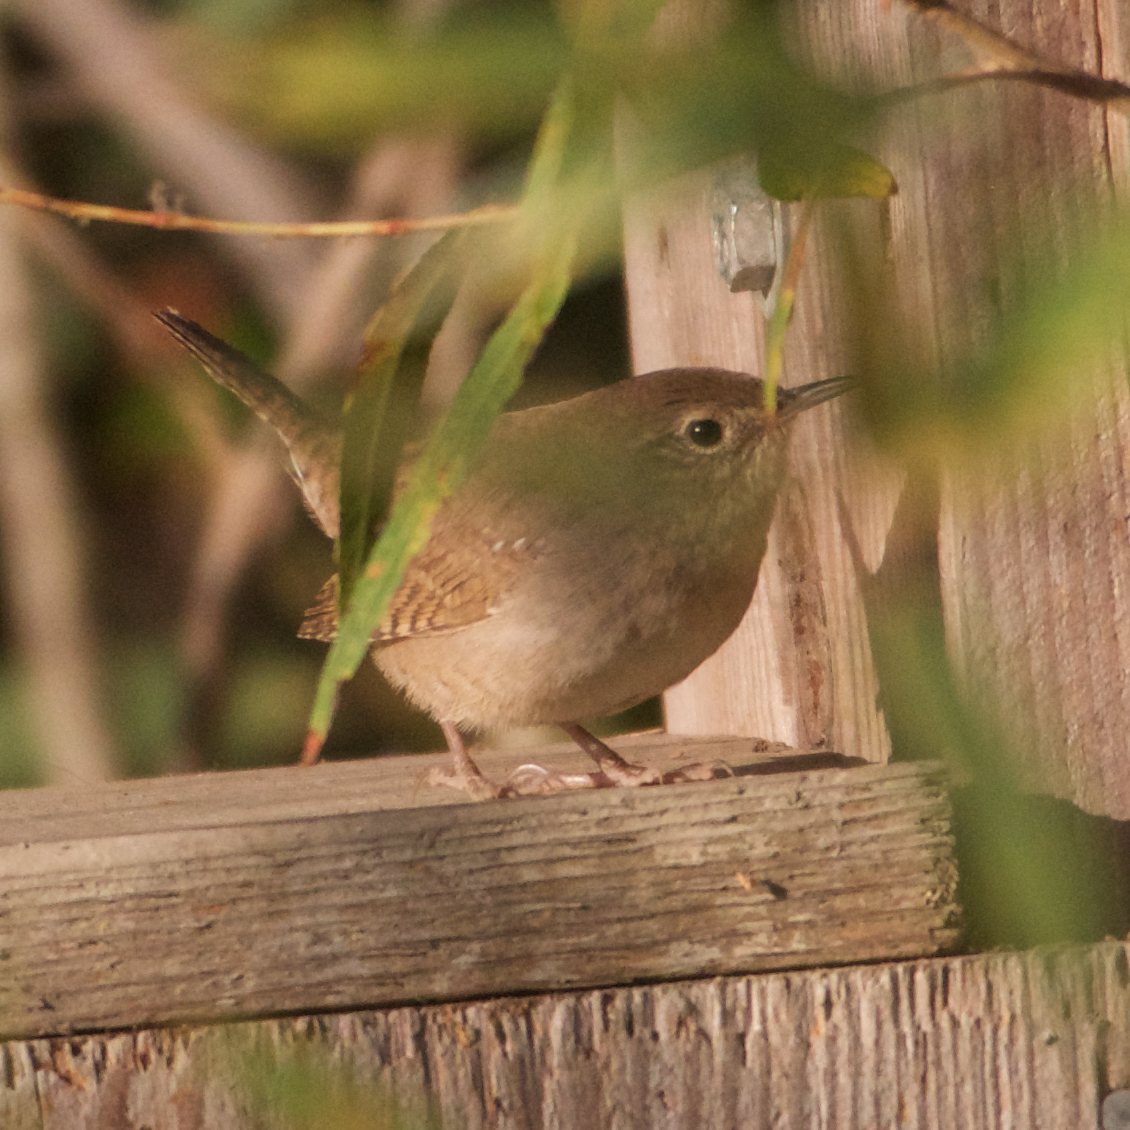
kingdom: Animalia
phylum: Chordata
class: Aves
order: Passeriformes
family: Troglodytidae
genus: Troglodytes
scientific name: Troglodytes aedon
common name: House wren
